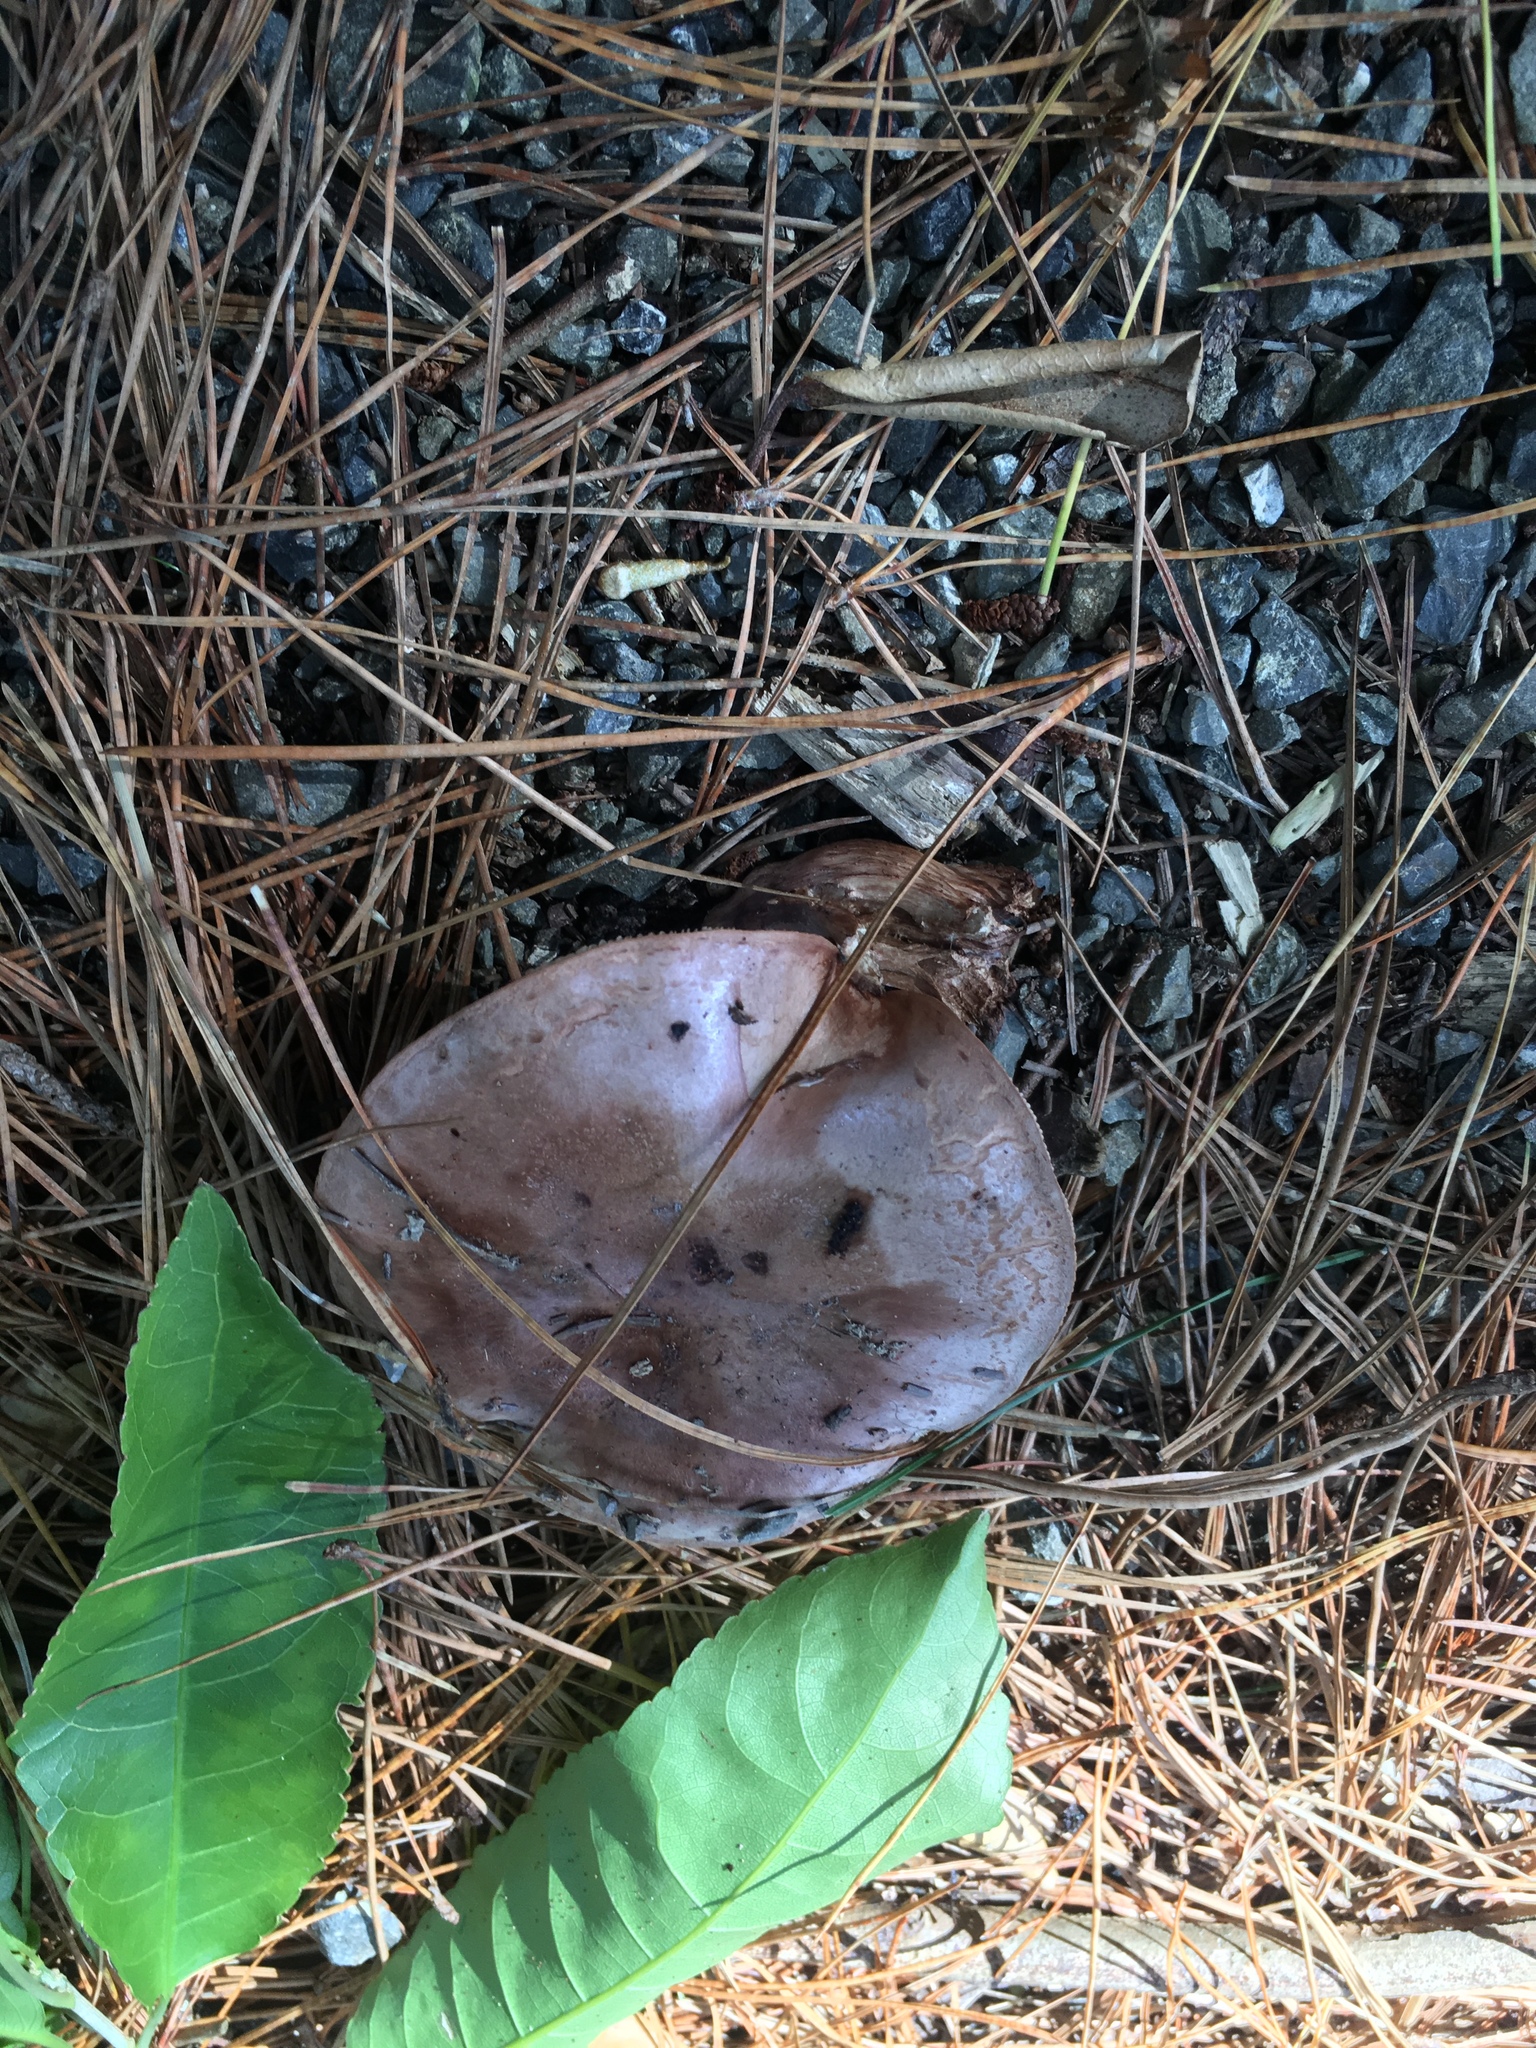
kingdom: Fungi
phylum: Basidiomycota
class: Agaricomycetes
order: Agaricales
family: Tricholomataceae
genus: Tricholoma
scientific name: Tricholoma batschii
